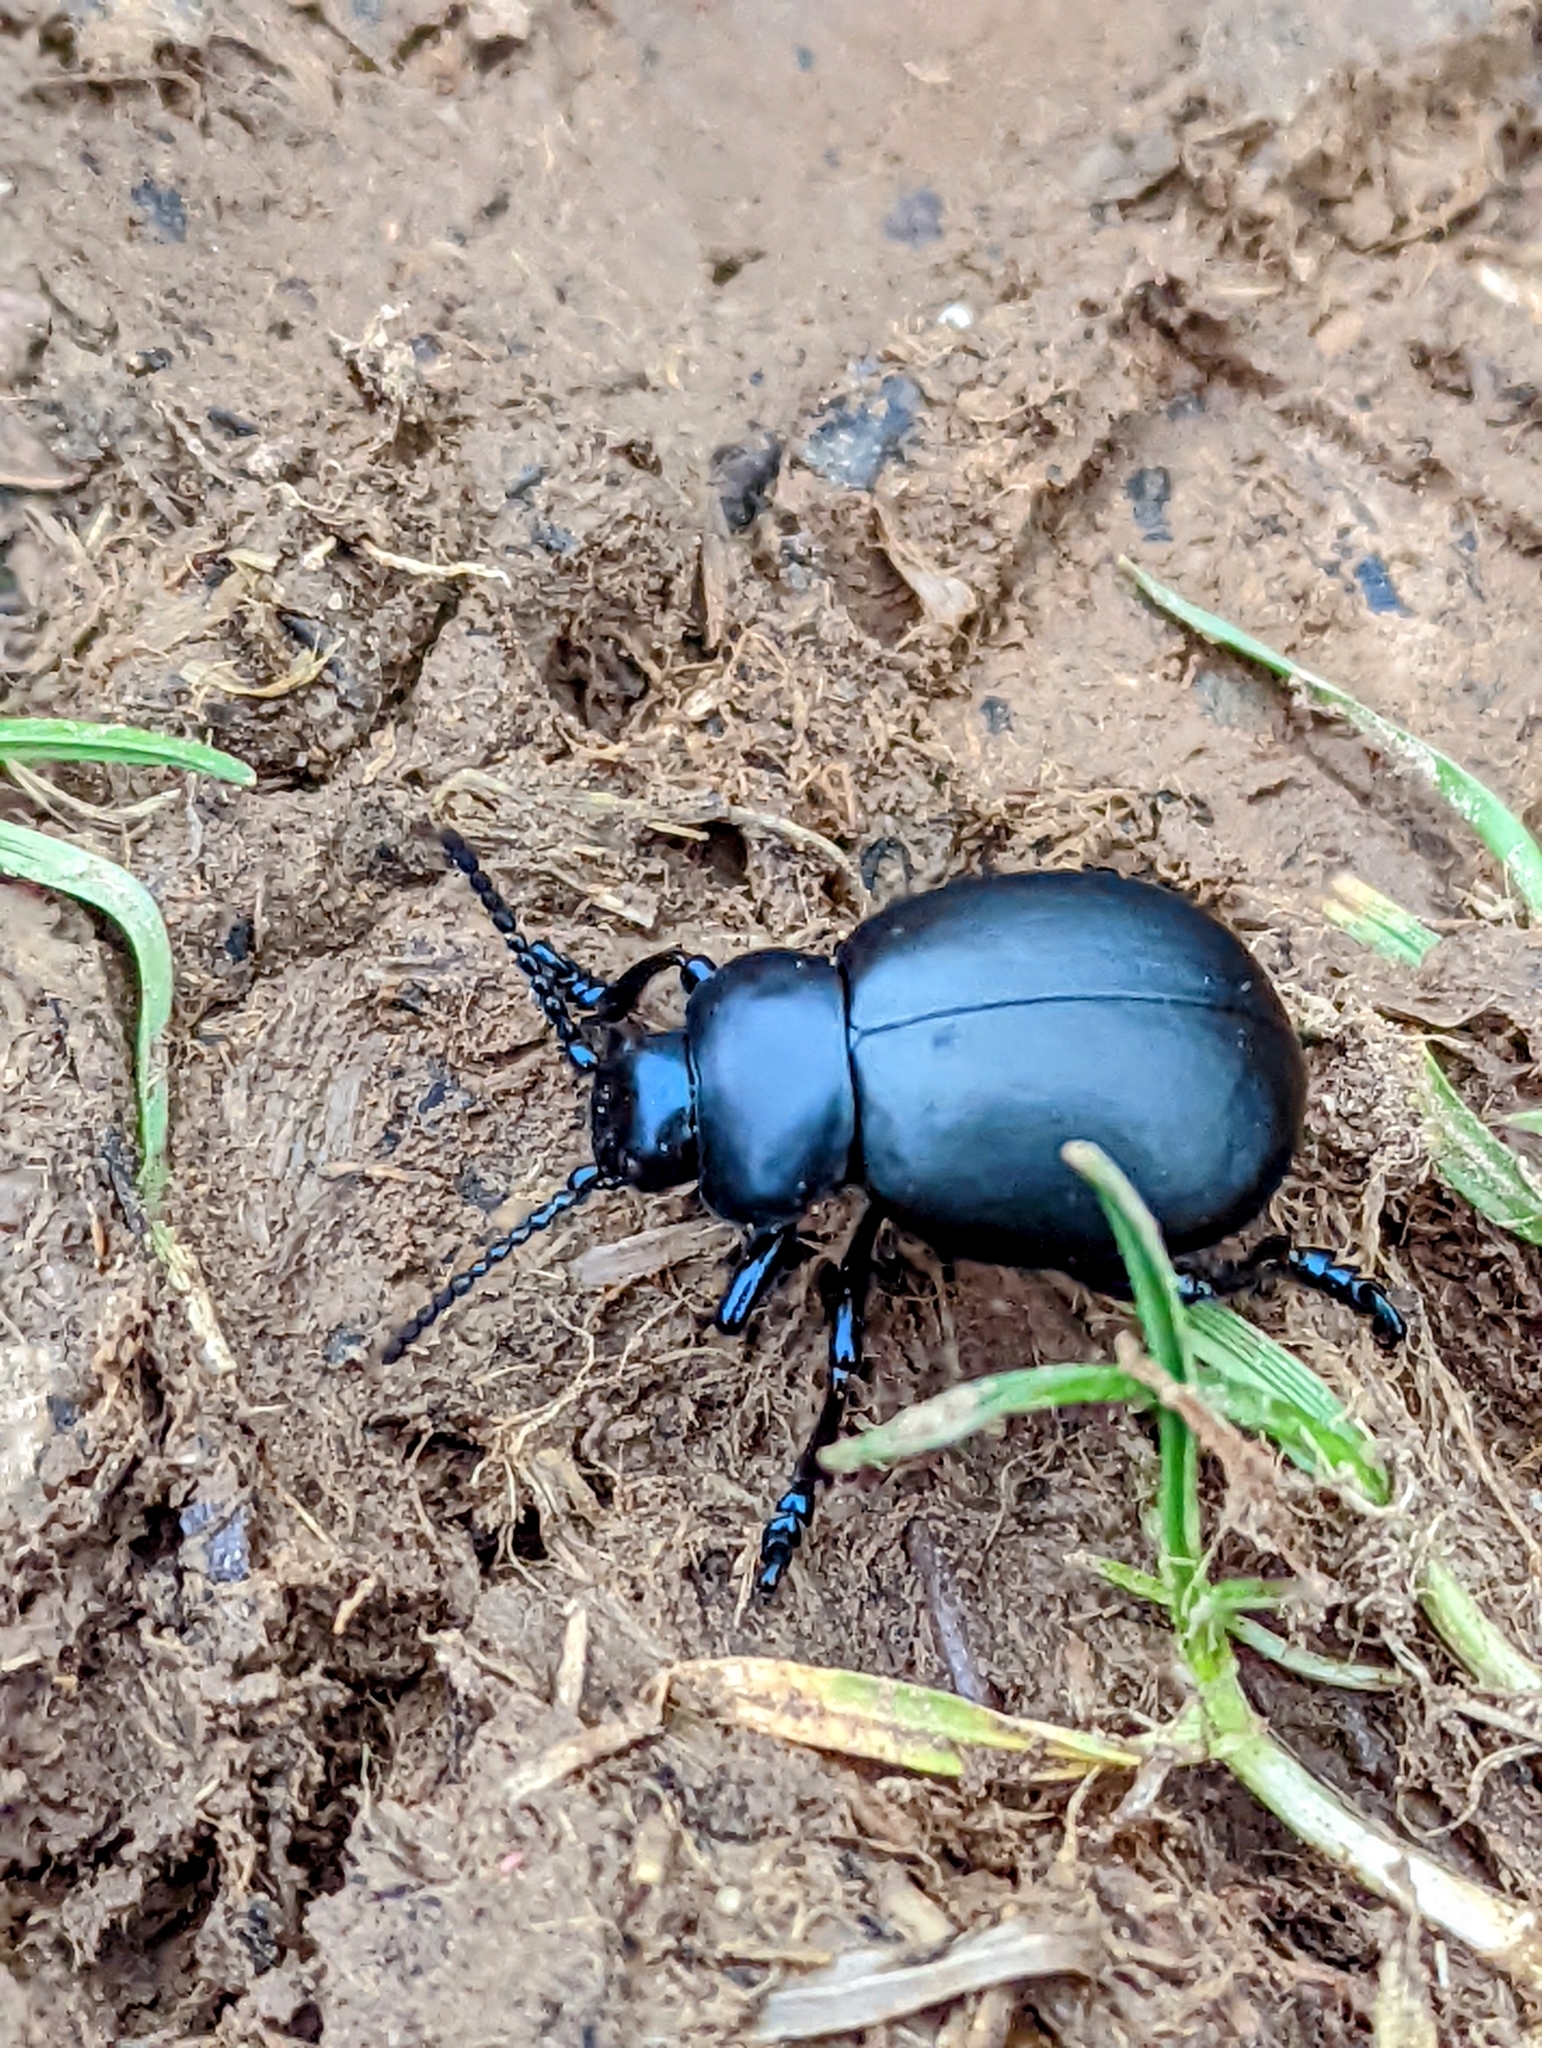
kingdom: Animalia
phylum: Arthropoda
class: Insecta
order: Coleoptera
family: Chrysomelidae
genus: Timarcha
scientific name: Timarcha tenebricosa
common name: Bloody-nosed beetle
